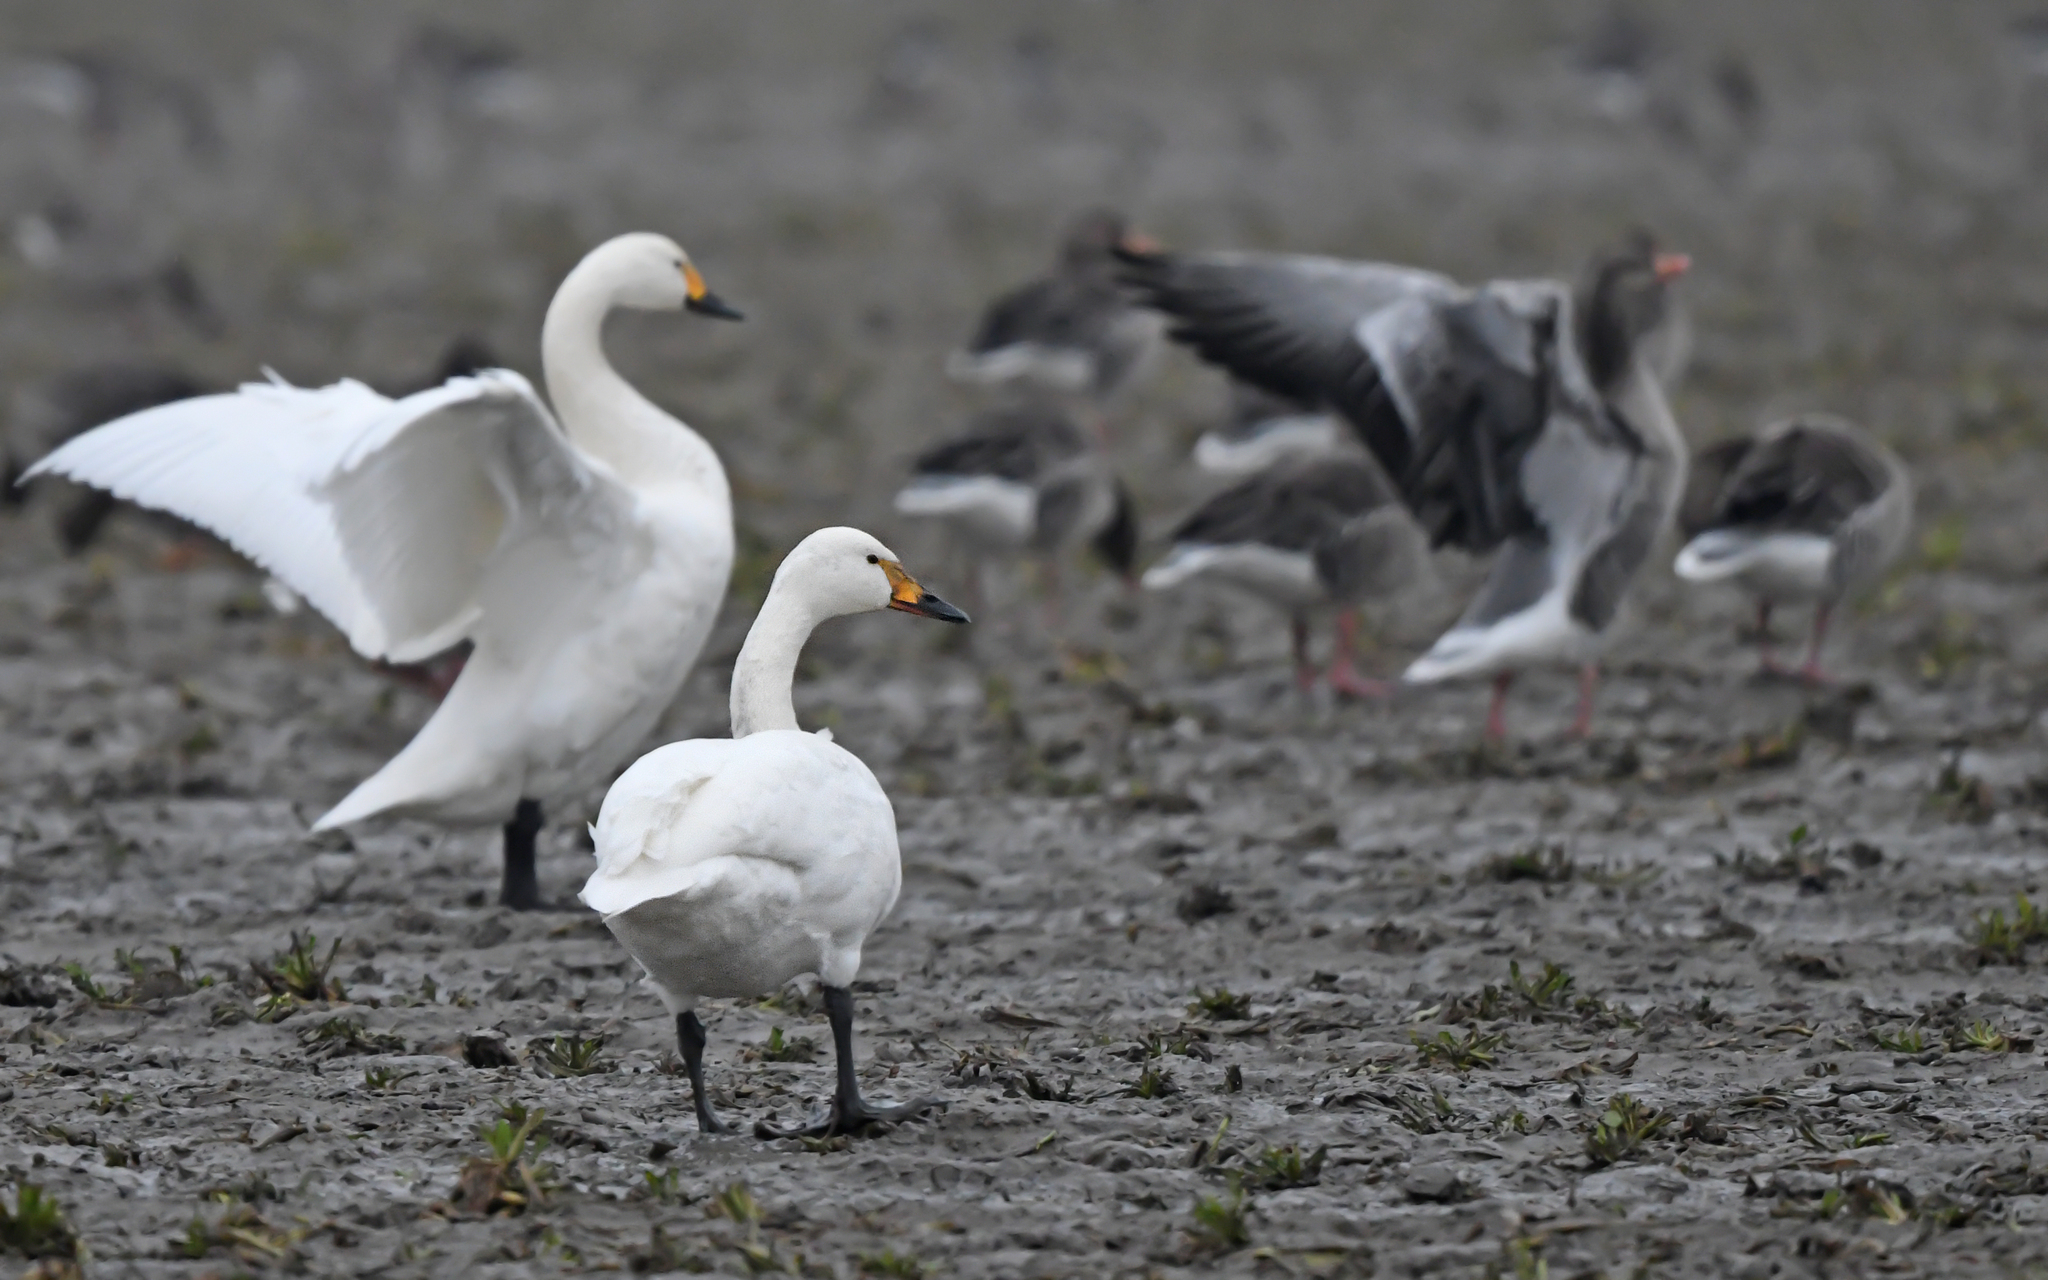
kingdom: Animalia
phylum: Chordata
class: Aves
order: Anseriformes
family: Anatidae
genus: Cygnus
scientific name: Cygnus columbianus
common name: Tundra swan
